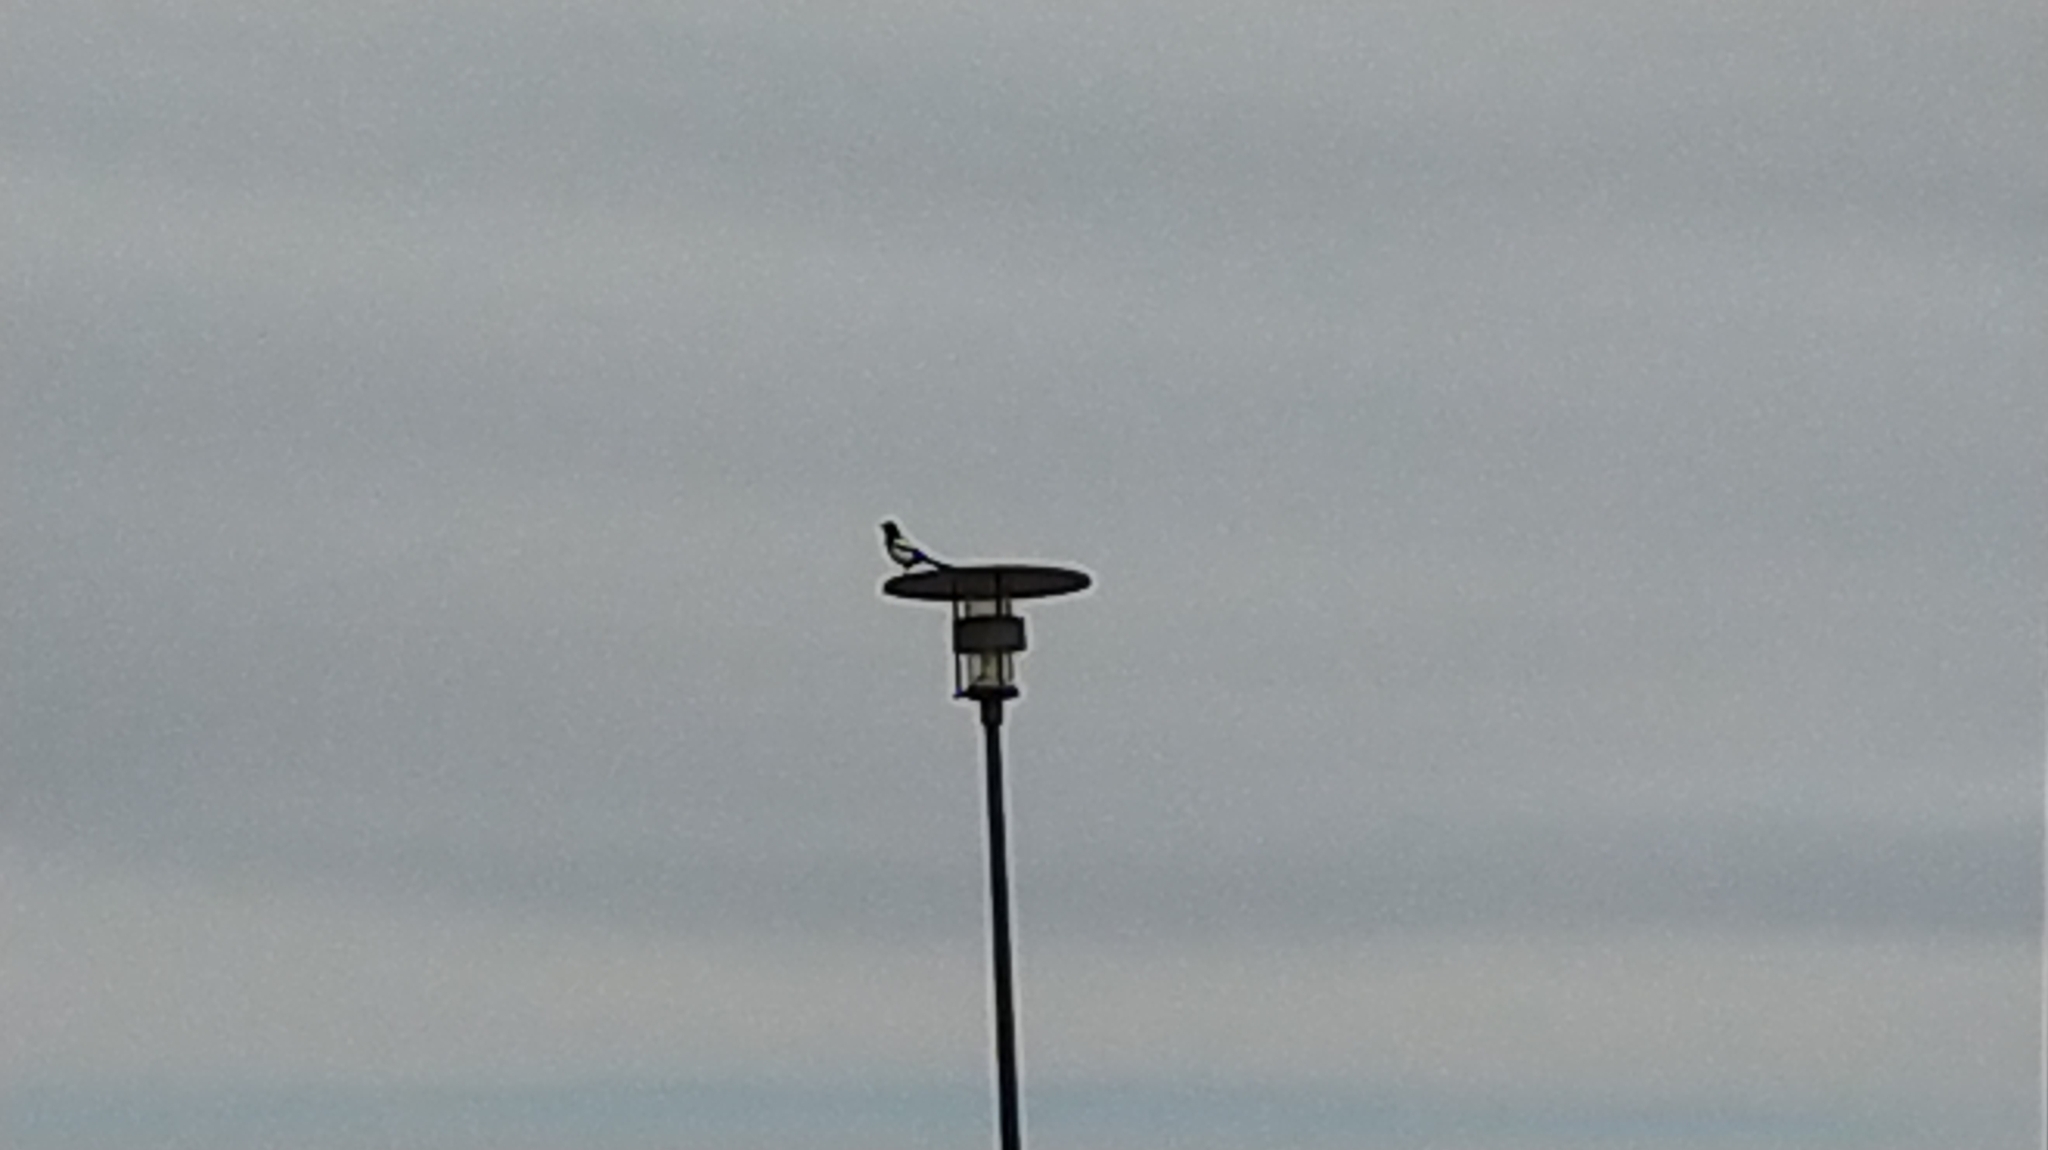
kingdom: Animalia
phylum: Chordata
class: Aves
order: Passeriformes
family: Corvidae
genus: Pica
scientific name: Pica pica
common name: Eurasian magpie
